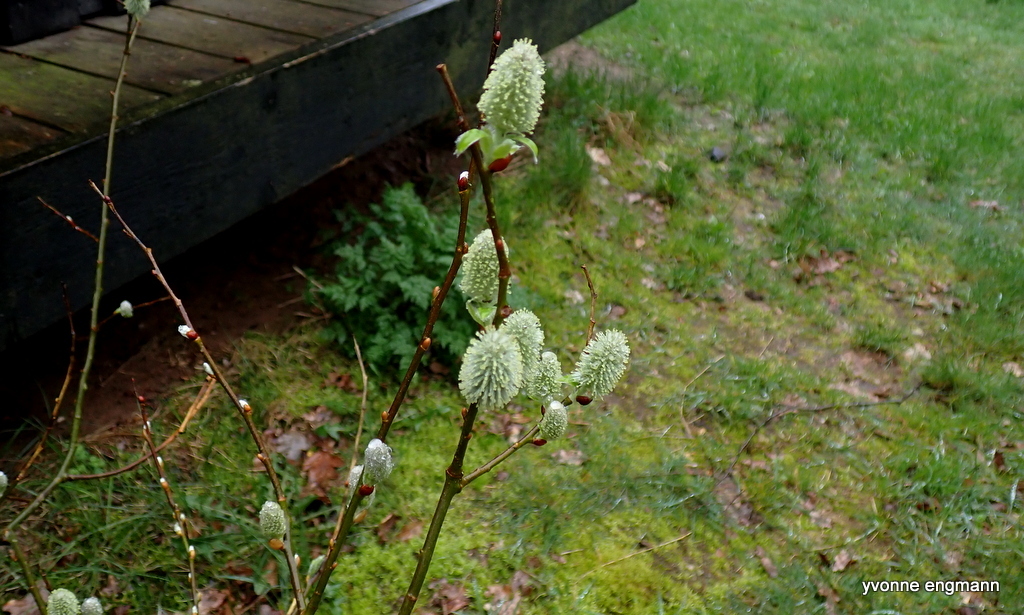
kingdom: Plantae
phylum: Tracheophyta
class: Magnoliopsida
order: Malpighiales
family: Salicaceae
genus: Salix
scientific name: Salix caprea
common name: Goat willow
